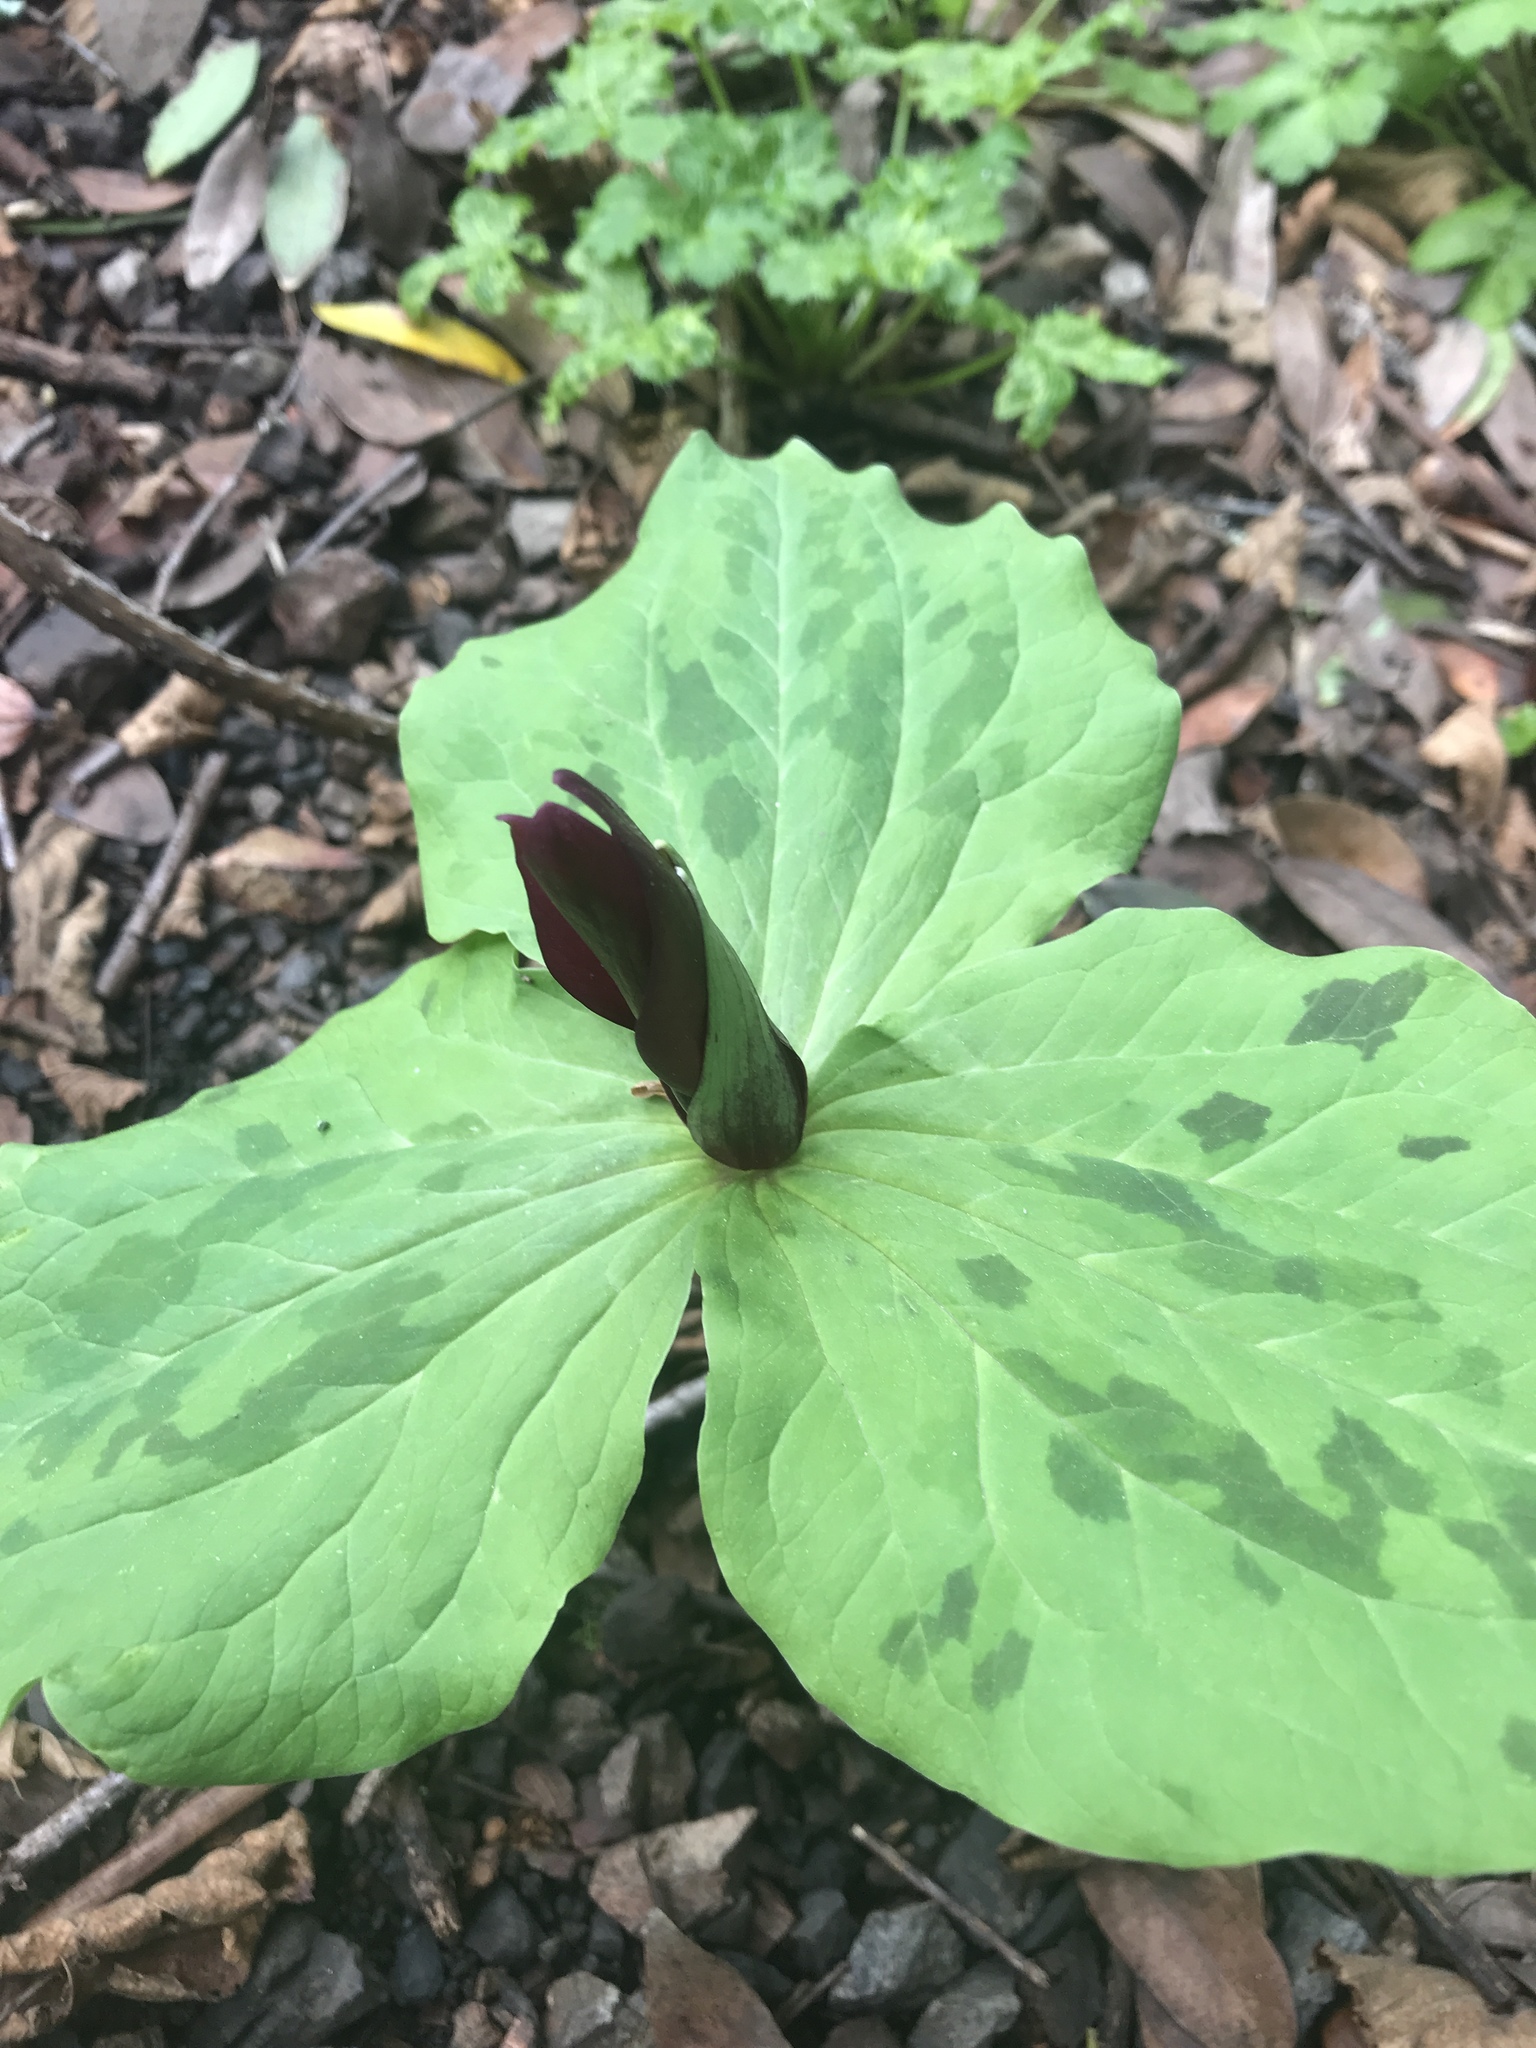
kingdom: Plantae
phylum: Tracheophyta
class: Liliopsida
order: Liliales
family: Melanthiaceae
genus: Trillium
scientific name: Trillium chloropetalum
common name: Giant trillium
